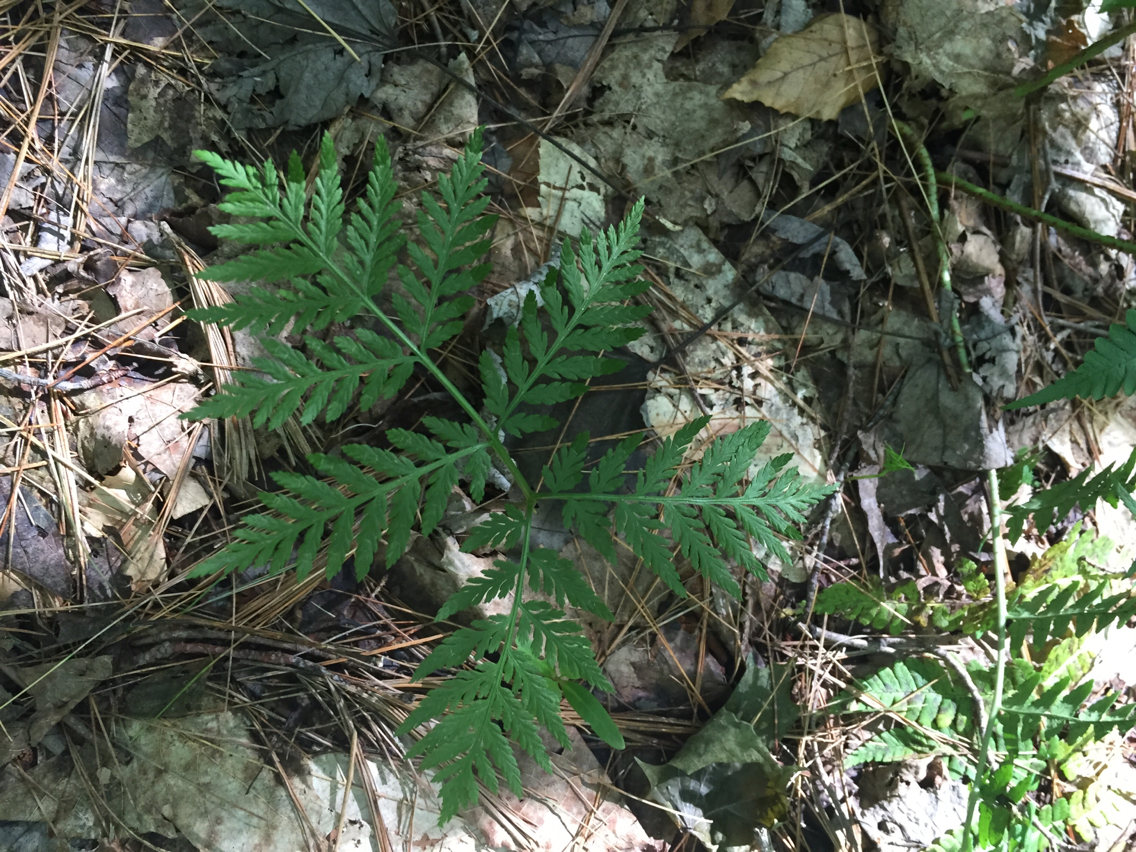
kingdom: Plantae
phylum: Tracheophyta
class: Polypodiopsida
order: Ophioglossales
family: Ophioglossaceae
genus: Botrypus
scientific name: Botrypus virginianus
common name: Common grapefern
